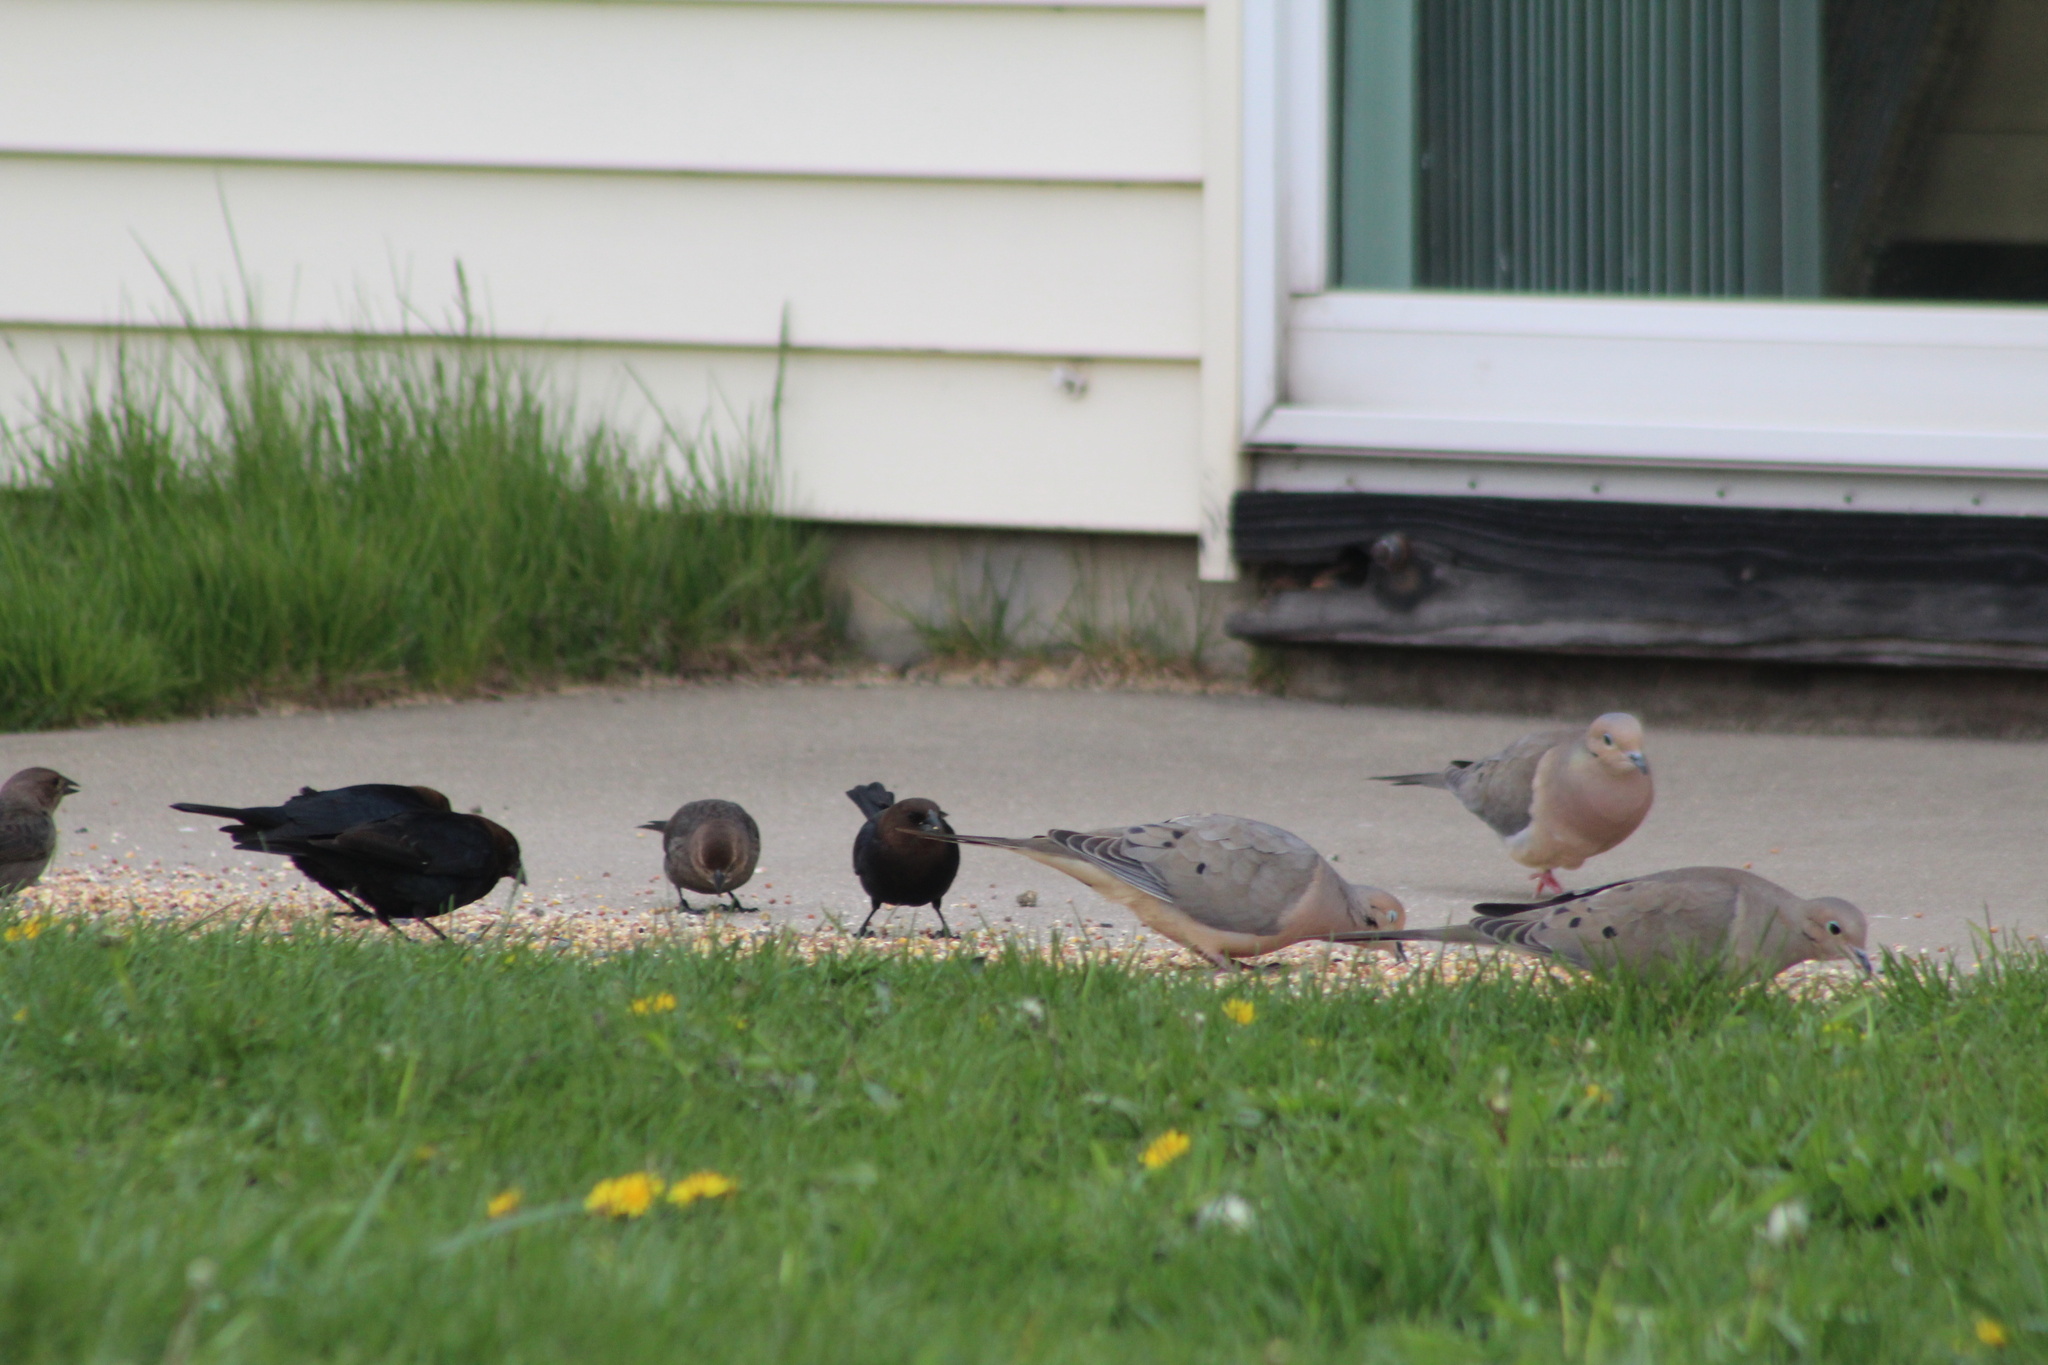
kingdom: Animalia
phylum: Chordata
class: Aves
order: Columbiformes
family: Columbidae
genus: Zenaida
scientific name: Zenaida macroura
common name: Mourning dove
